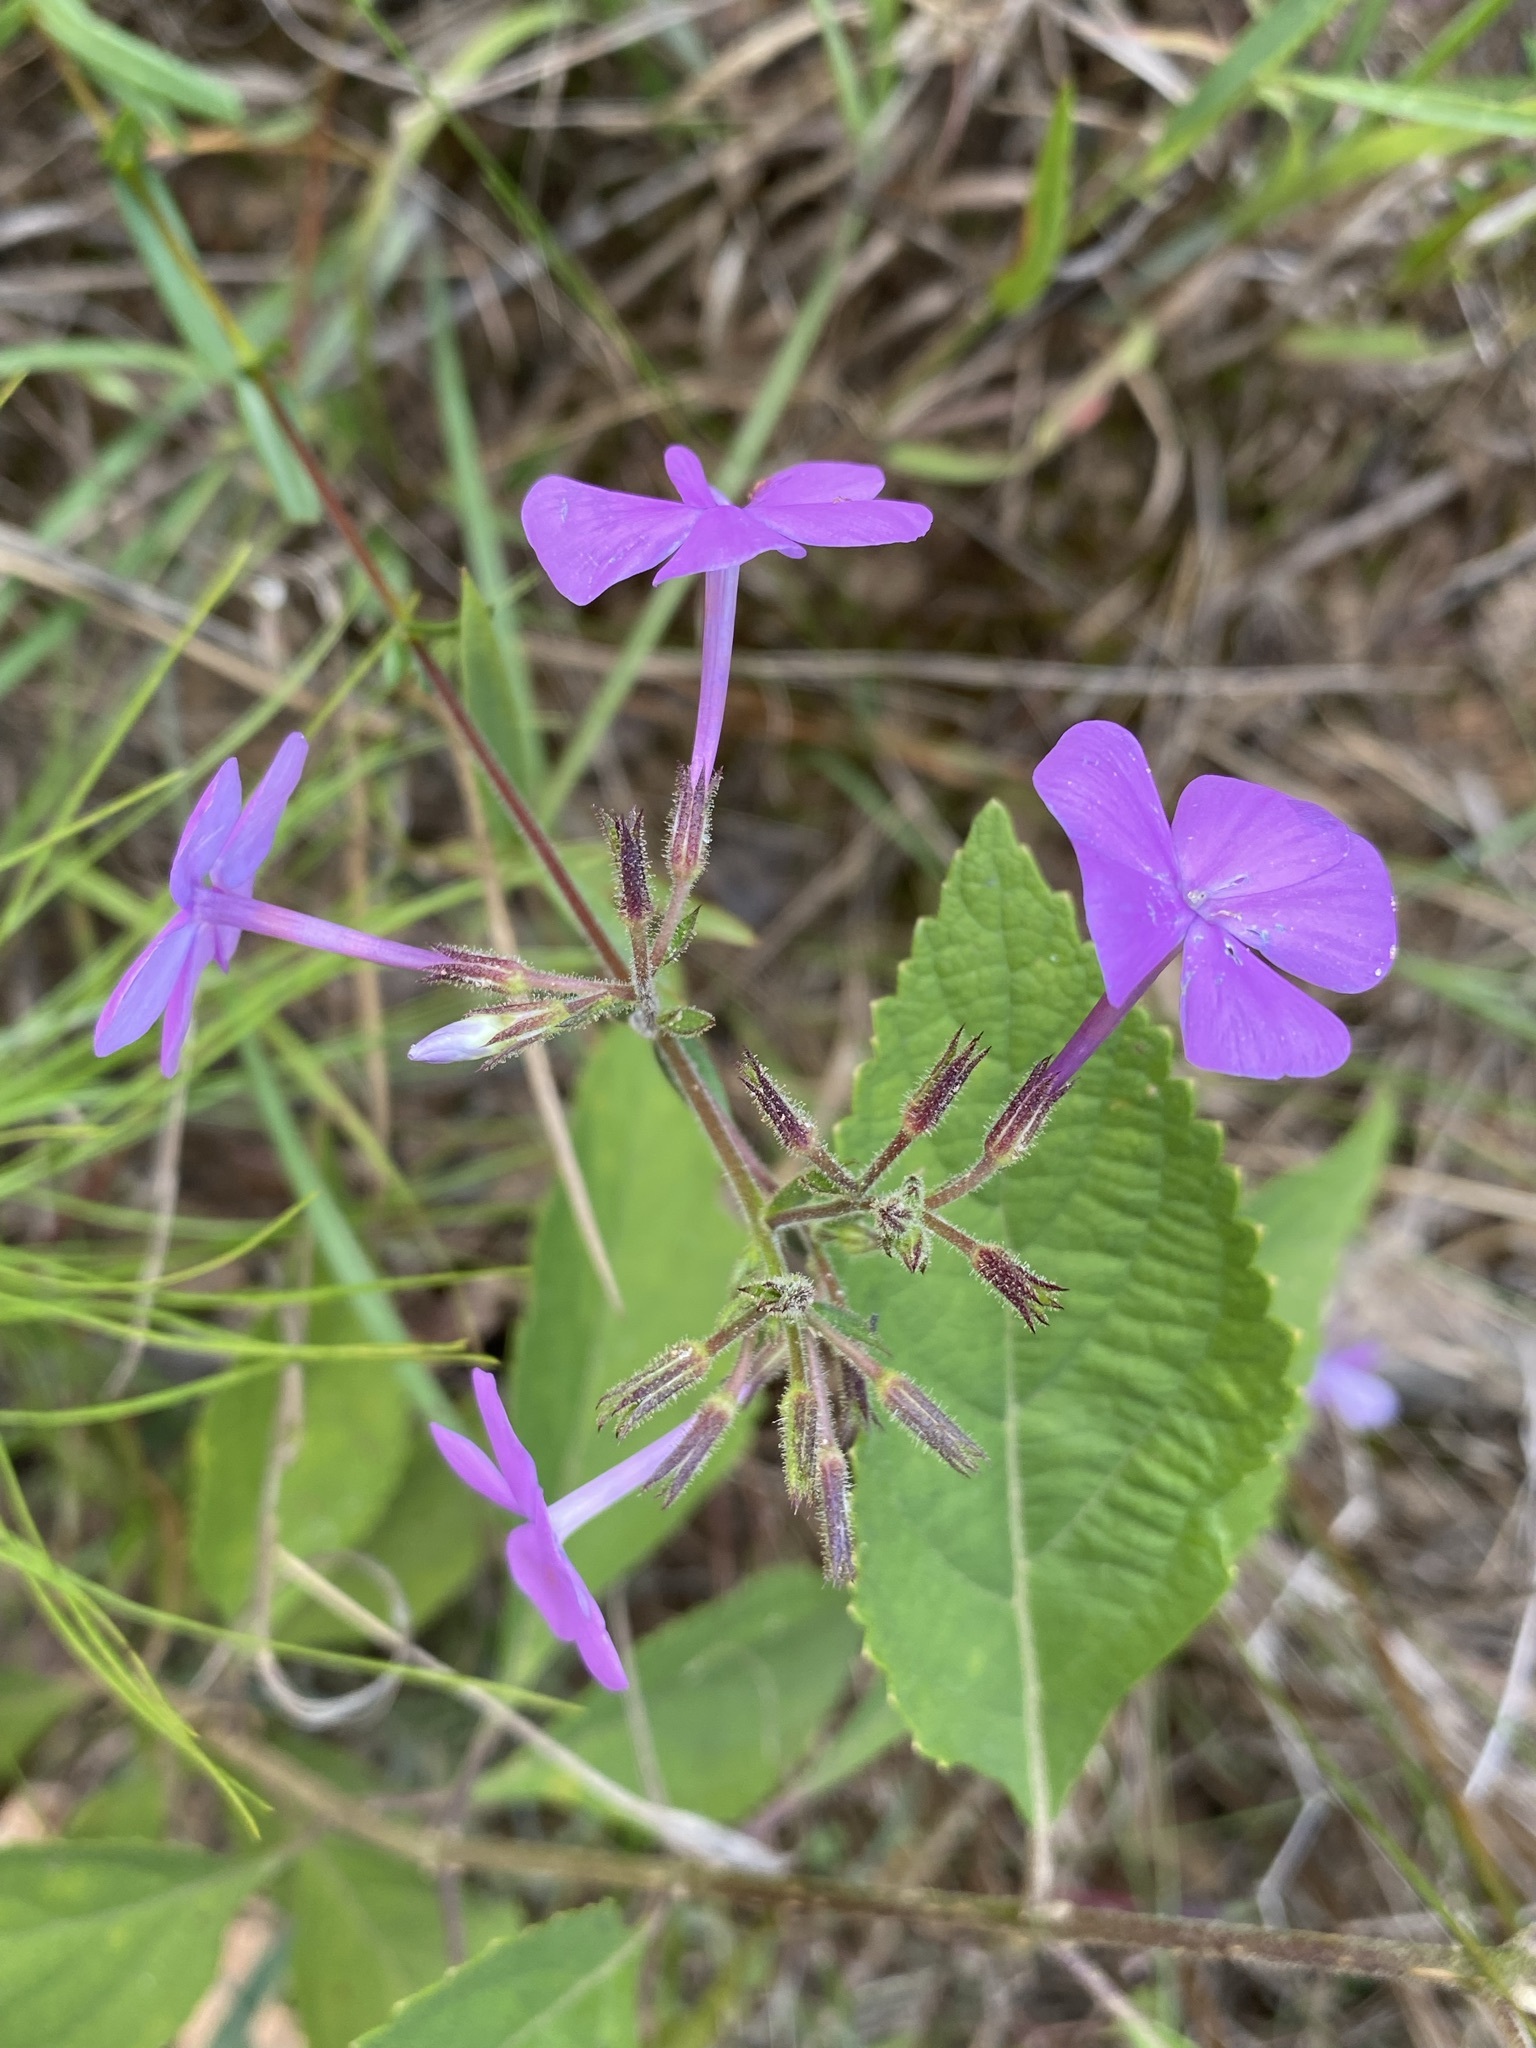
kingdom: Plantae
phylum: Tracheophyta
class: Magnoliopsida
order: Ericales
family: Polemoniaceae
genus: Phlox
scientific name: Phlox floridana
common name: Florida phlox
